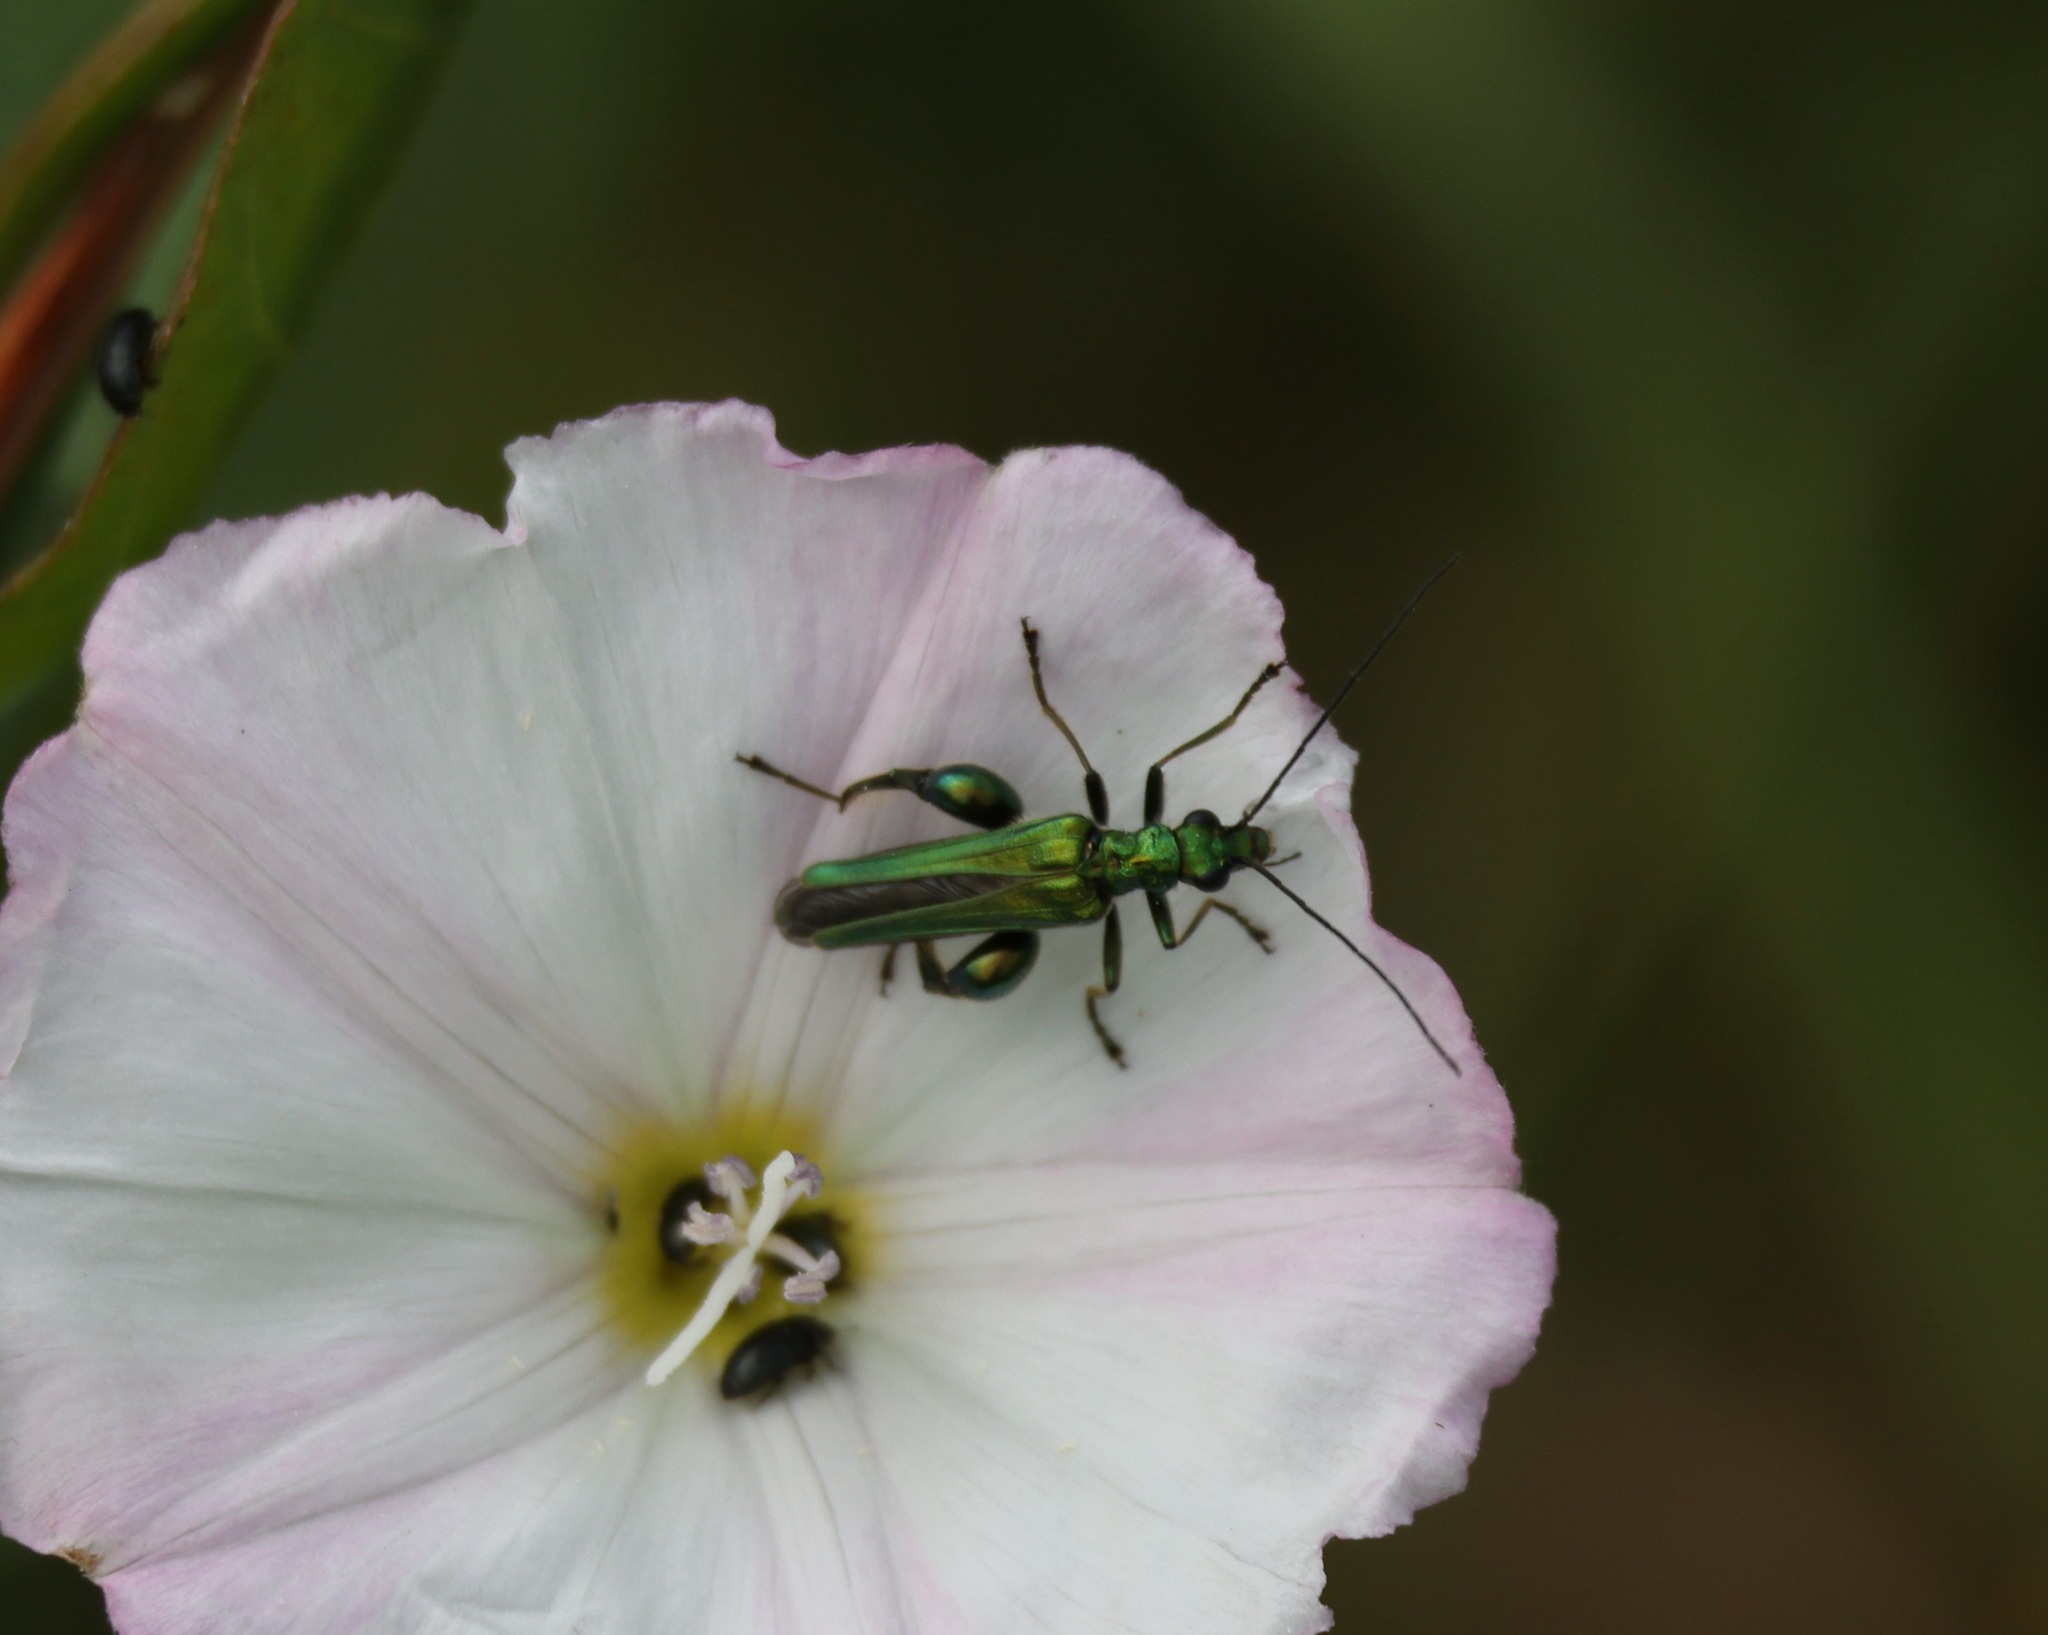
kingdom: Animalia
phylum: Arthropoda
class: Insecta
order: Coleoptera
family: Oedemeridae
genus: Oedemera
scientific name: Oedemera nobilis
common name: Swollen-thighed beetle
